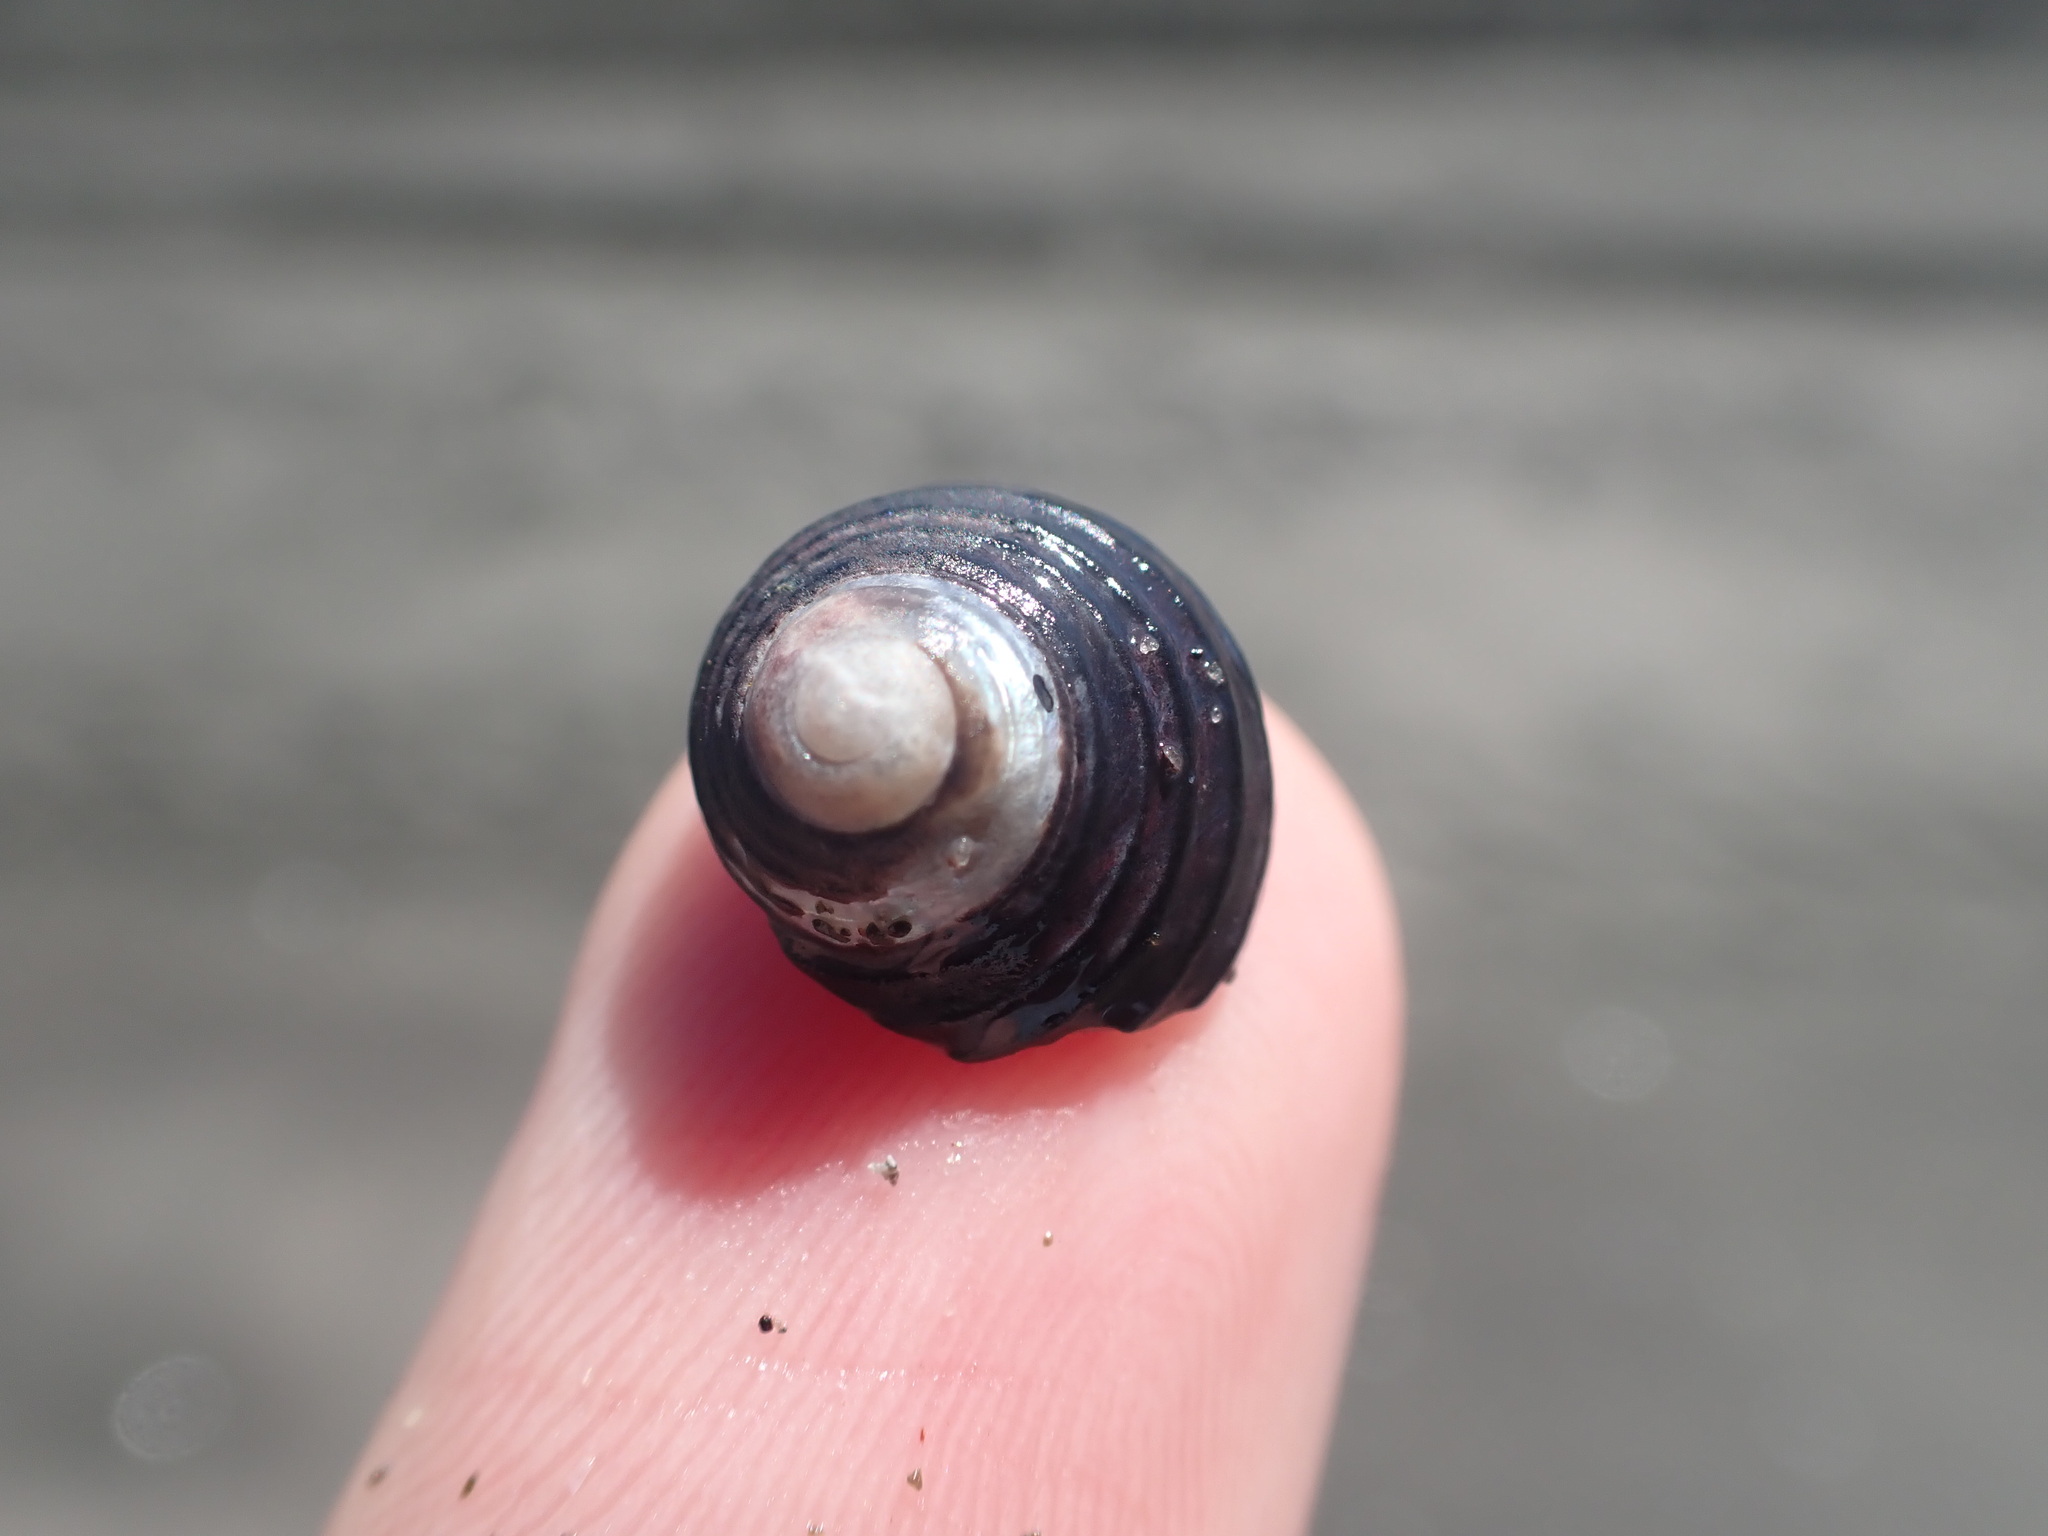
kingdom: Animalia
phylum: Mollusca
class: Gastropoda
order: Trochida
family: Trochidae
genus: Diloma
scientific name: Diloma subrostratum
